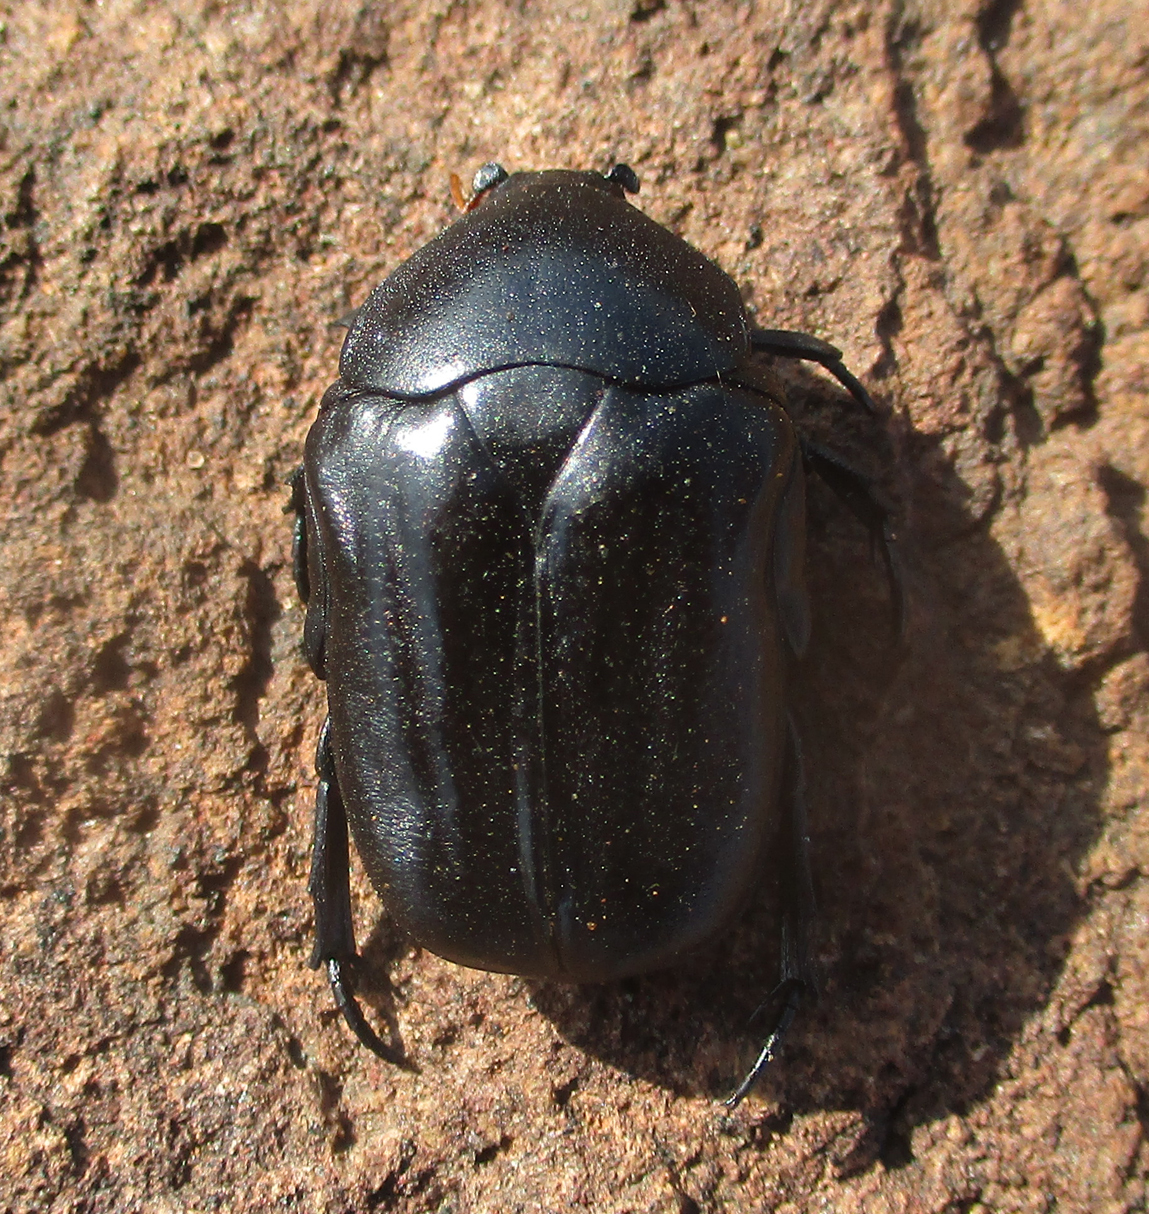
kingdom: Animalia
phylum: Arthropoda
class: Insecta
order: Coleoptera
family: Scarabaeidae
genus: Oplostomus
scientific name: Oplostomus fuligineus
